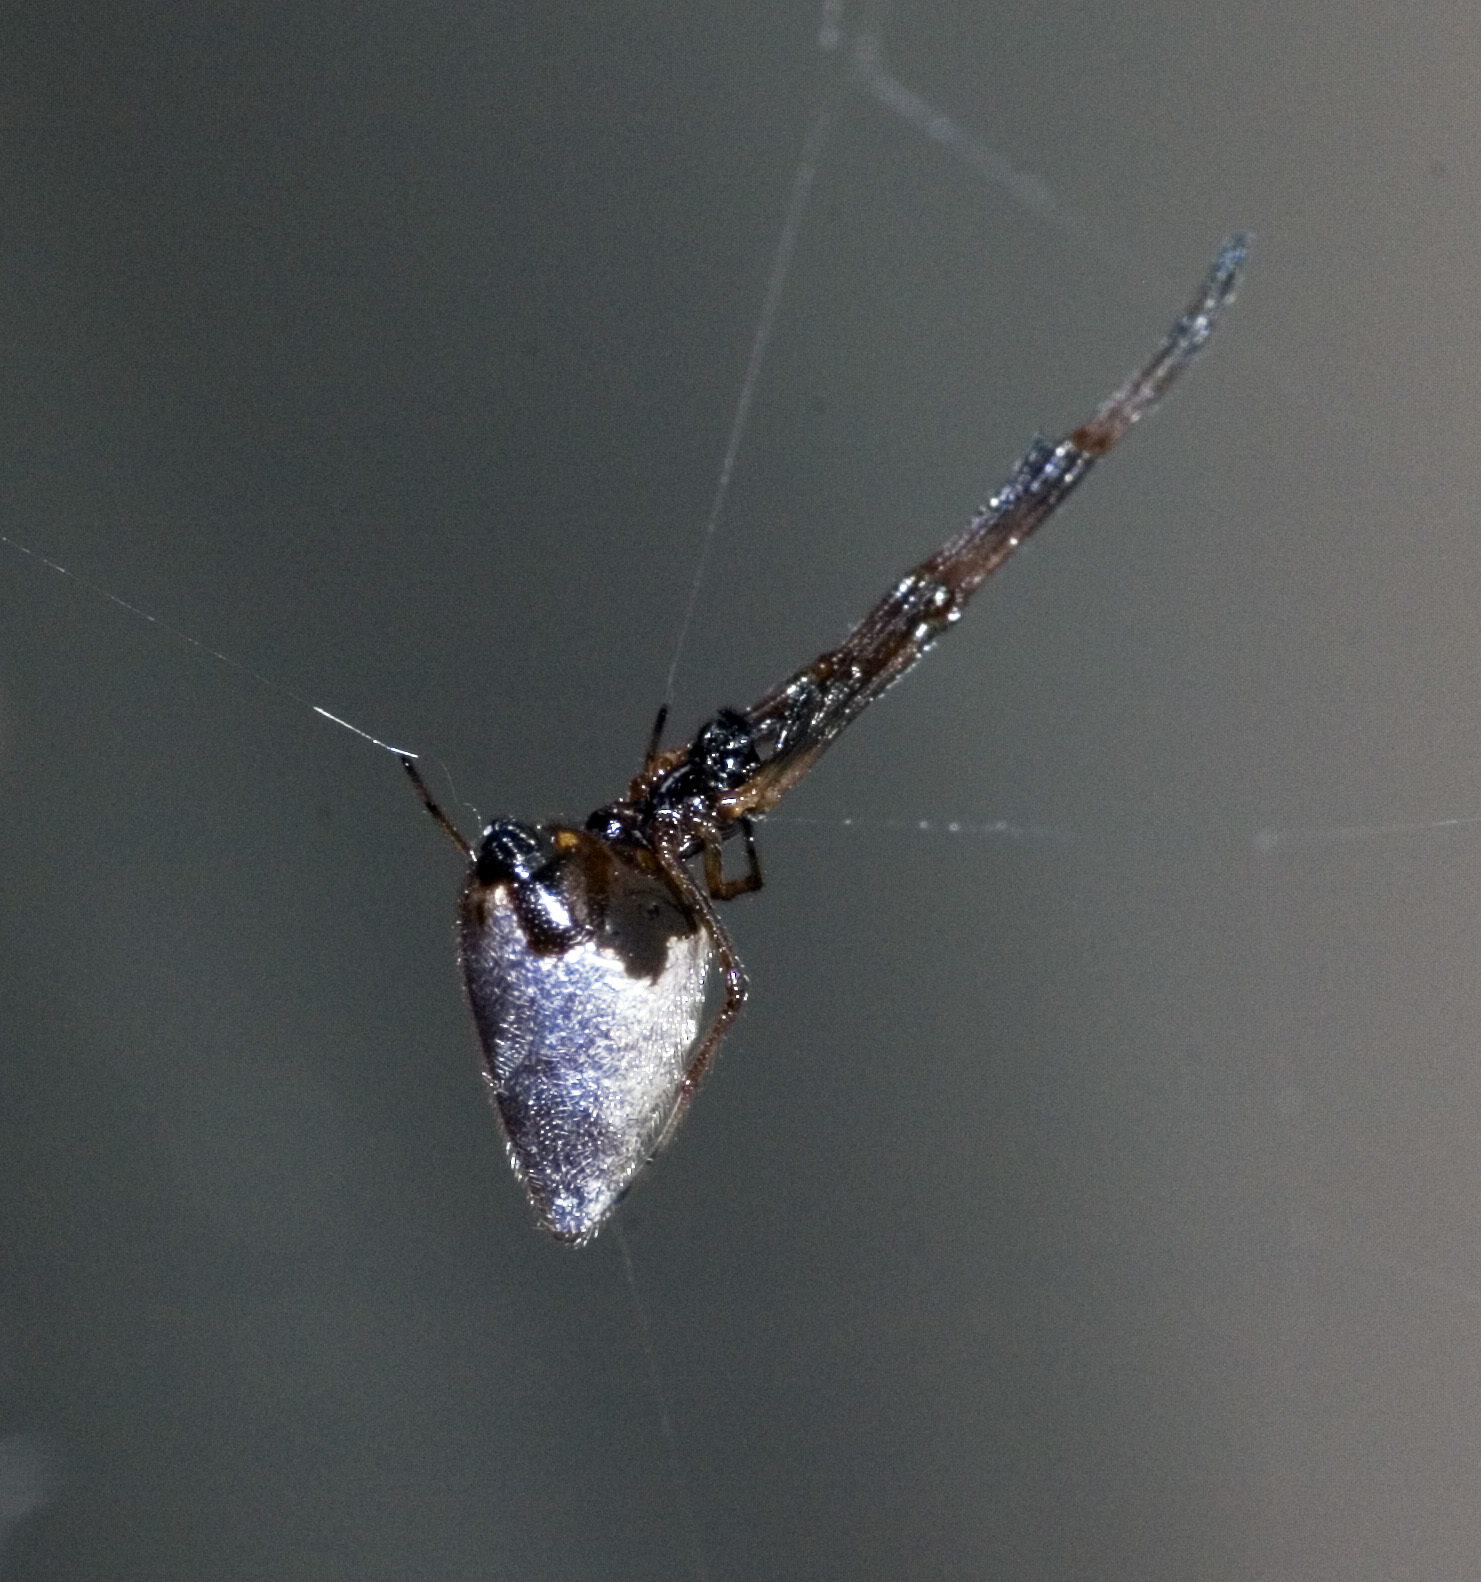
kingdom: Animalia
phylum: Arthropoda
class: Arachnida
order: Araneae
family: Theridiidae
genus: Argyrodes
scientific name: Argyrodes antipodianus
